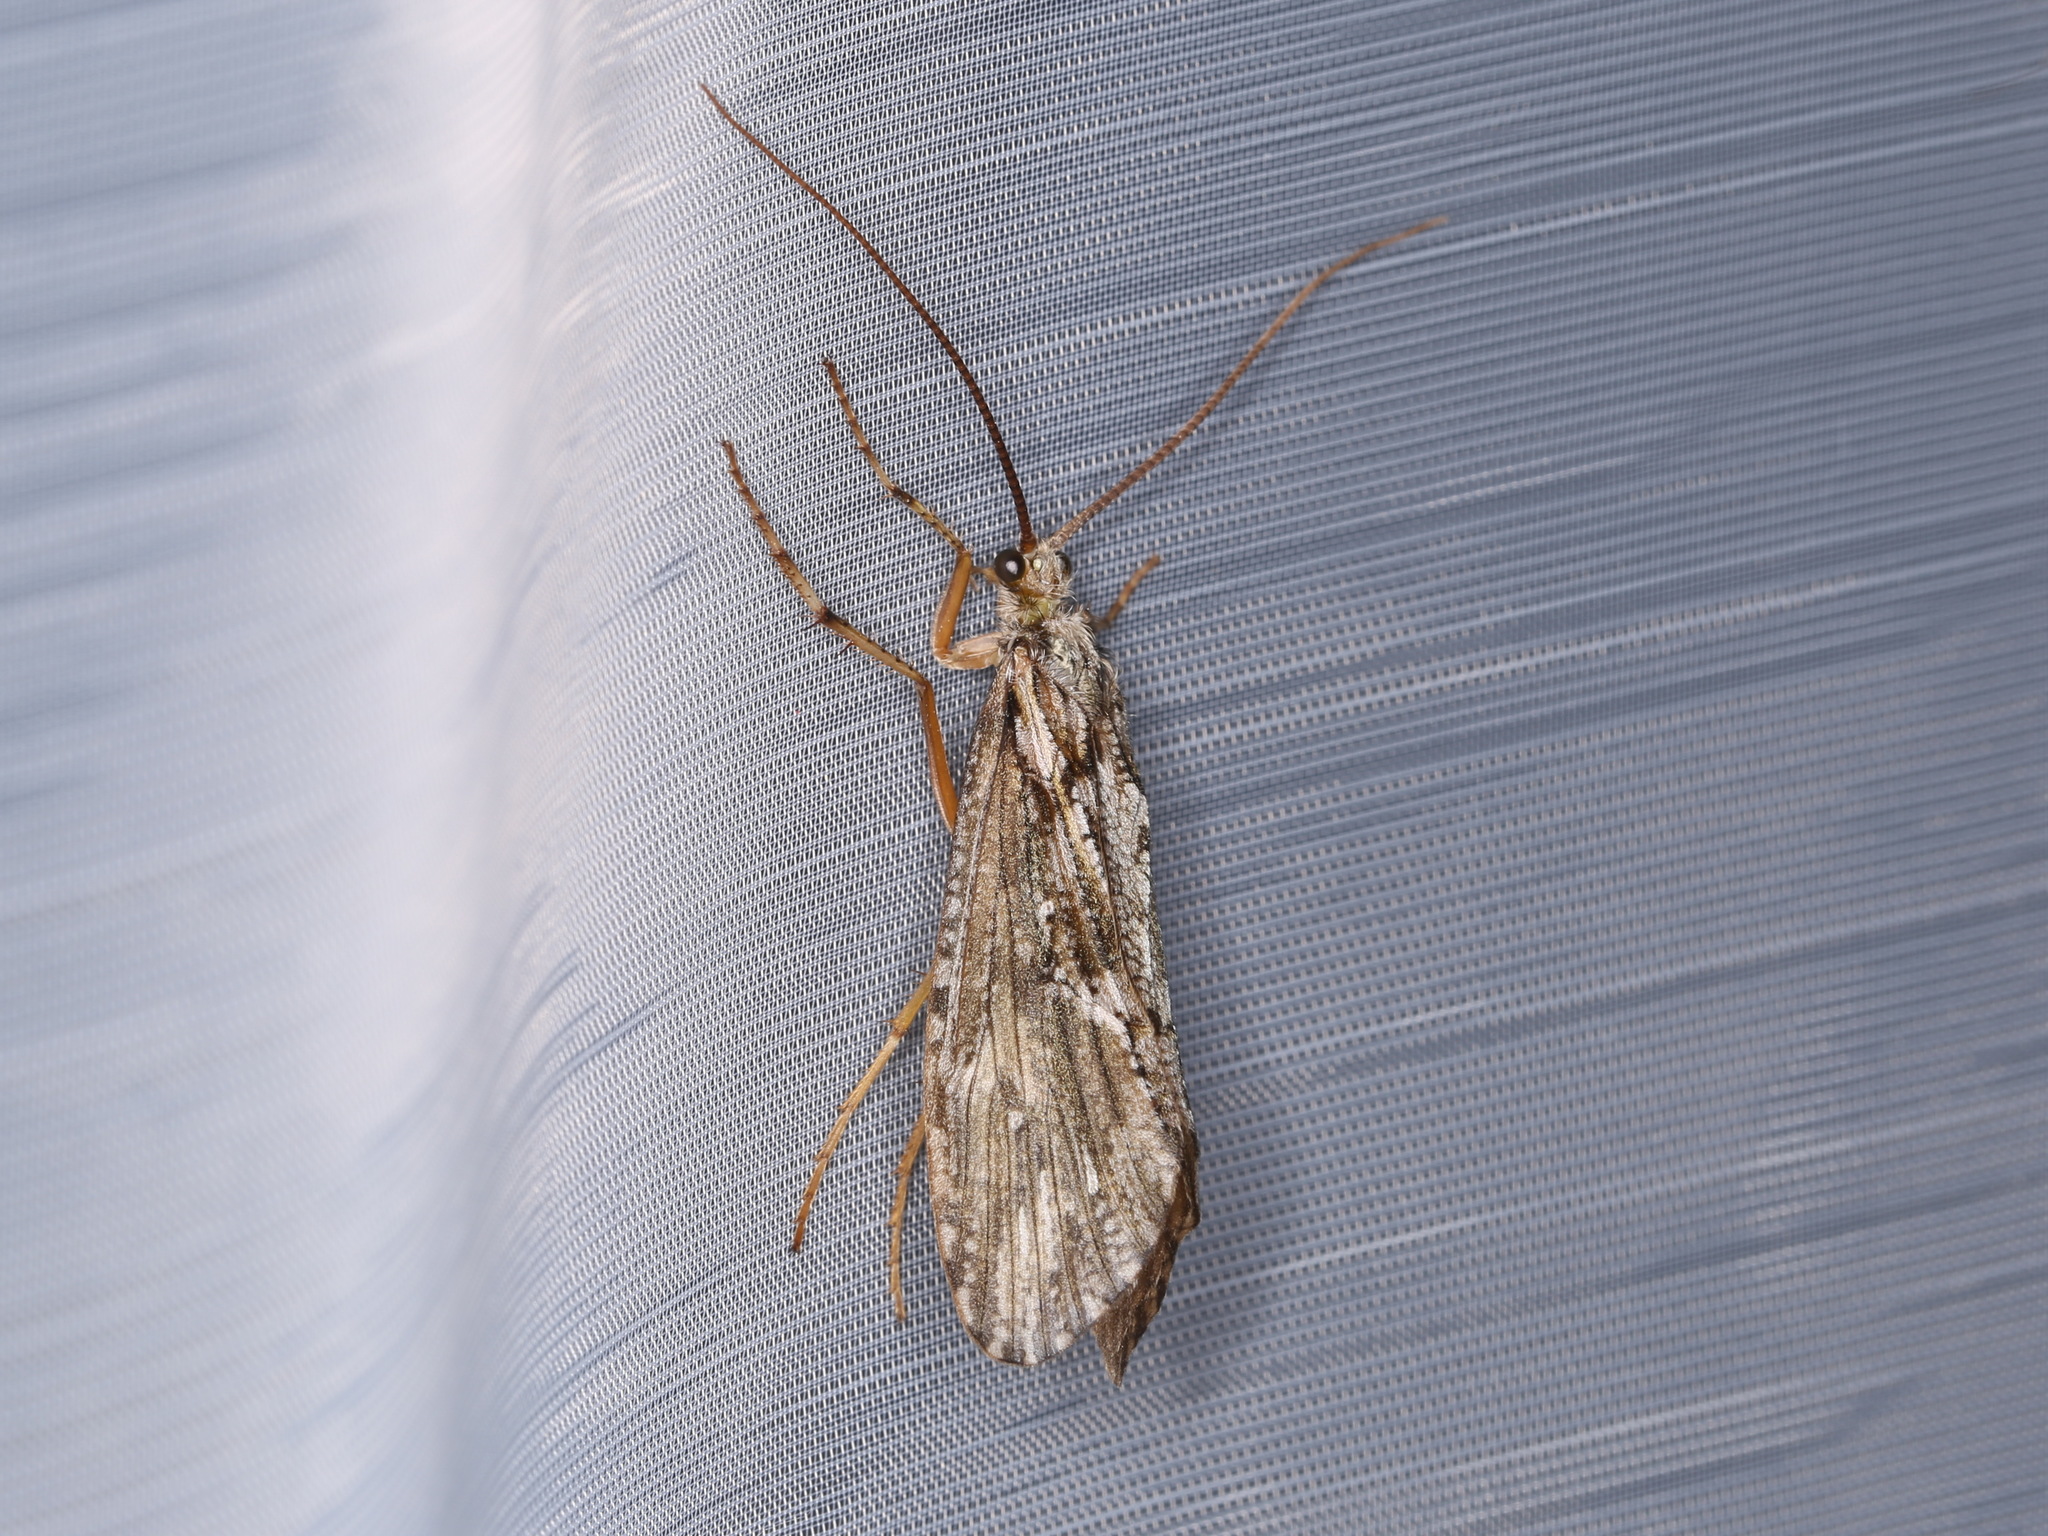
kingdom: Animalia
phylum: Arthropoda
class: Insecta
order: Trichoptera
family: Phryganeidae
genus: Phryganea
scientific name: Phryganea grandis
